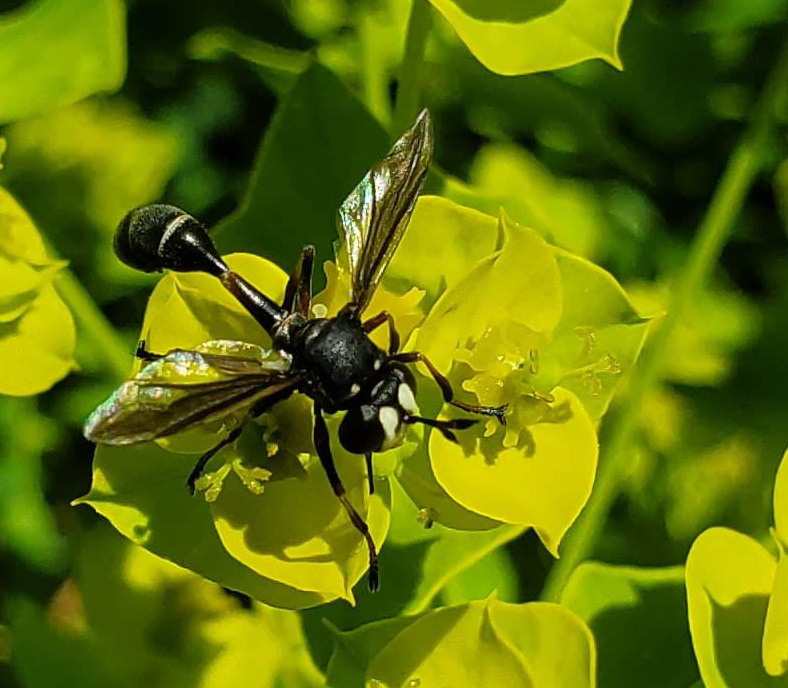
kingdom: Animalia
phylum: Arthropoda
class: Insecta
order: Diptera
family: Conopidae
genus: Physocephala
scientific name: Physocephala furcillata
